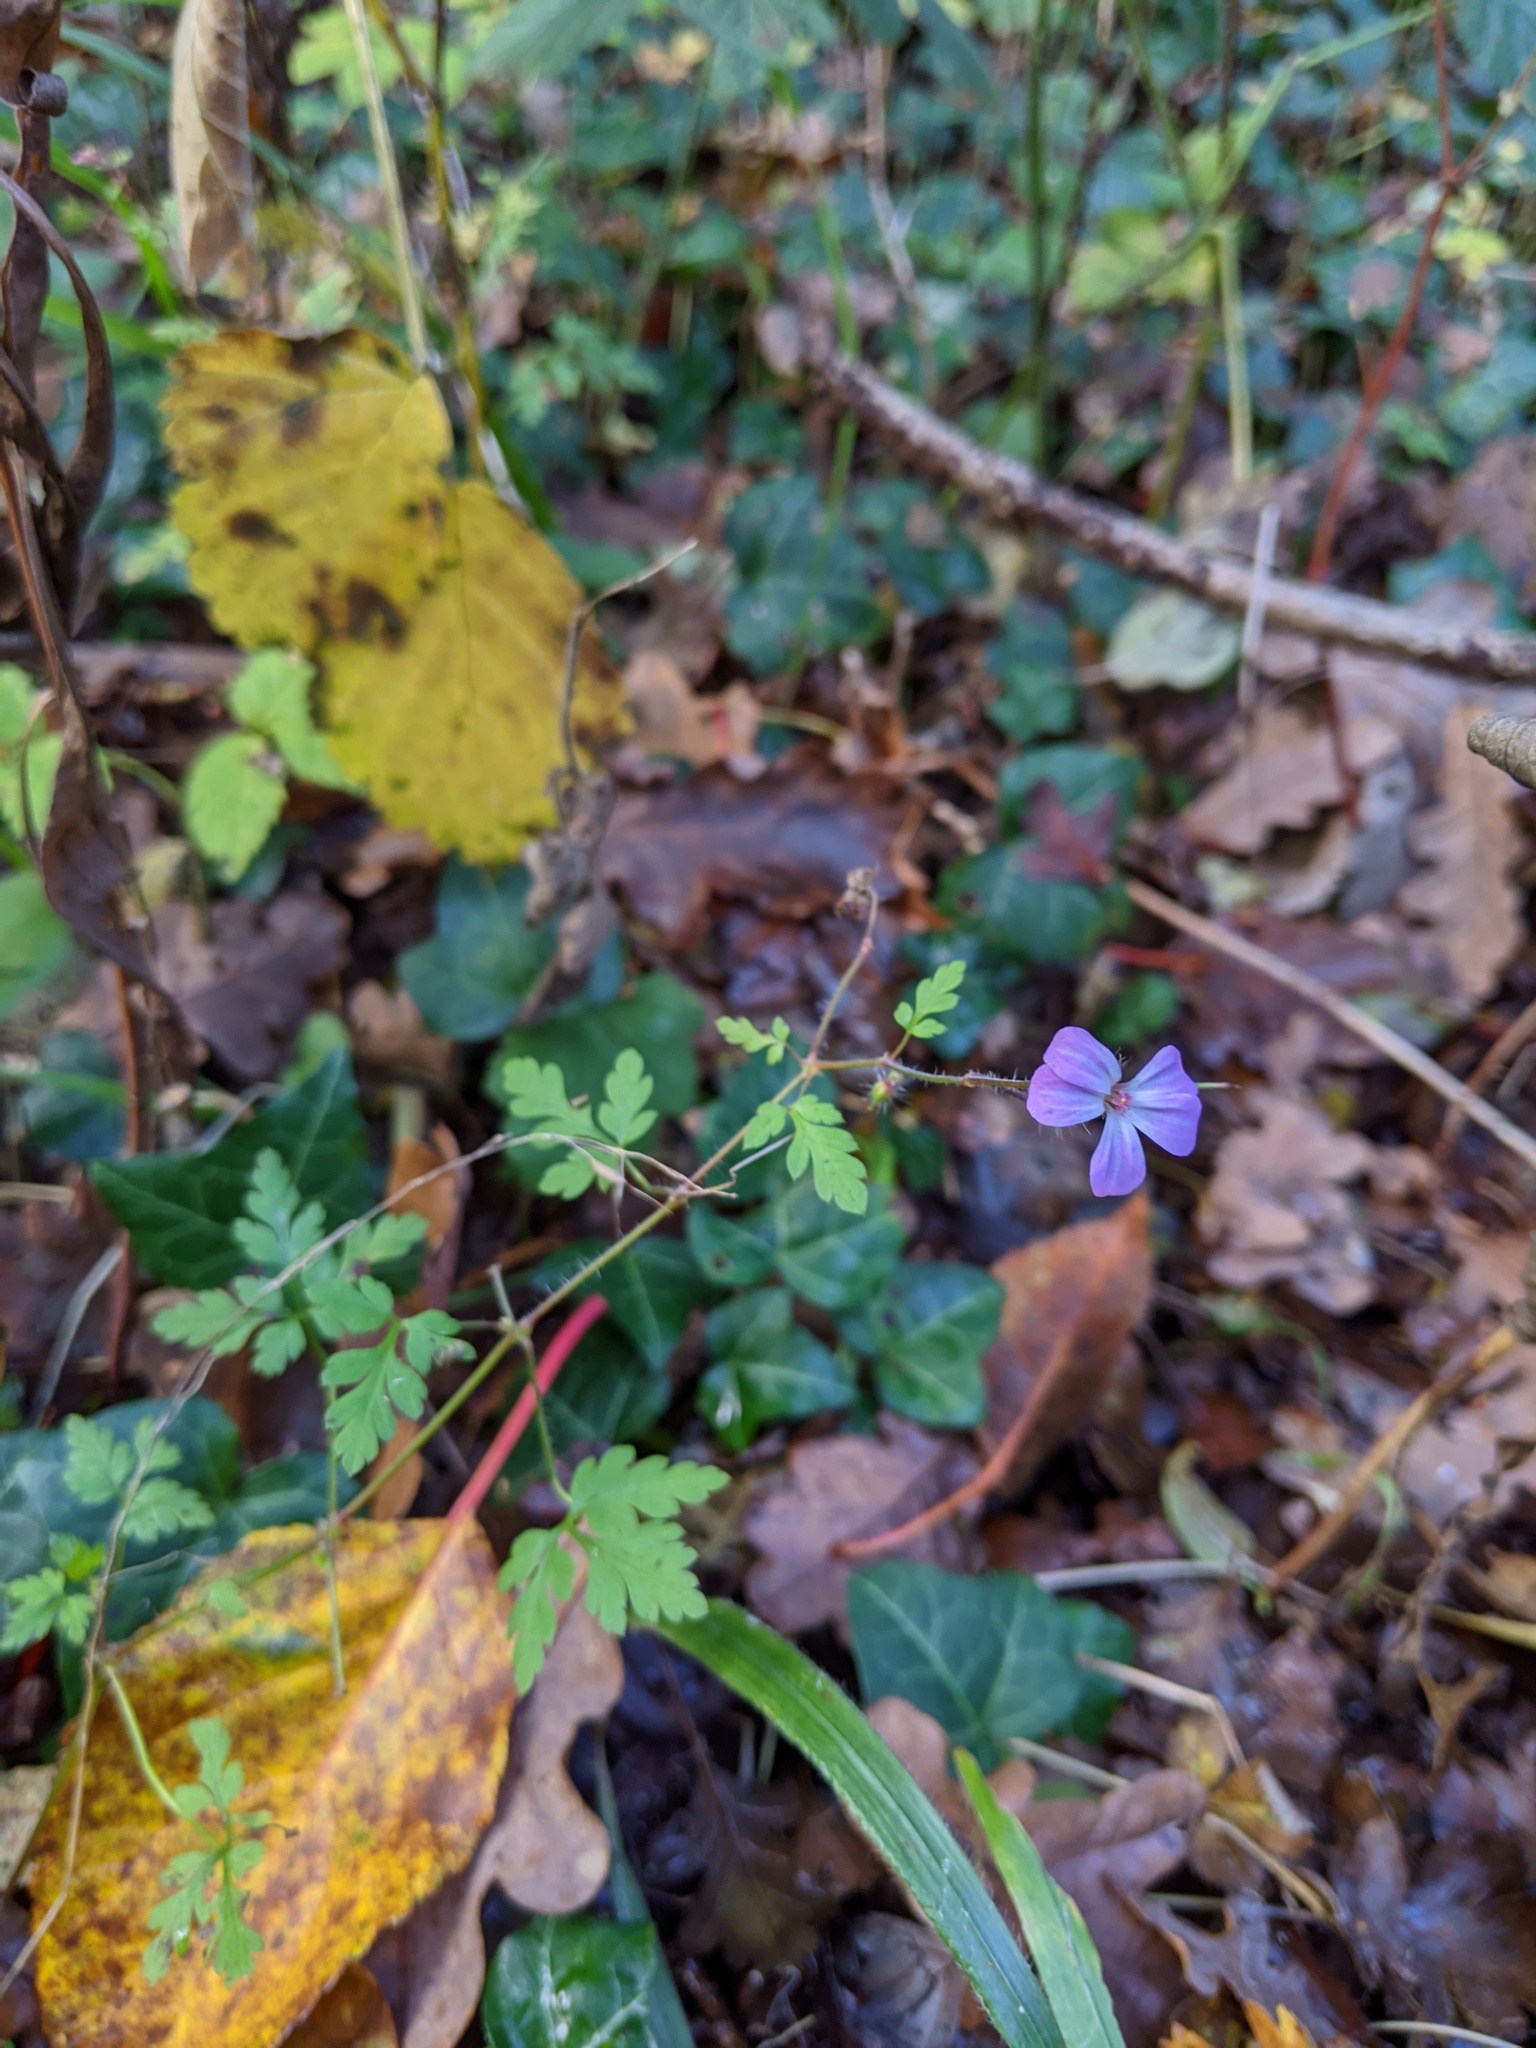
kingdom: Plantae
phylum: Tracheophyta
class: Magnoliopsida
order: Geraniales
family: Geraniaceae
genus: Geranium
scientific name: Geranium robertianum
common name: Herb-robert
